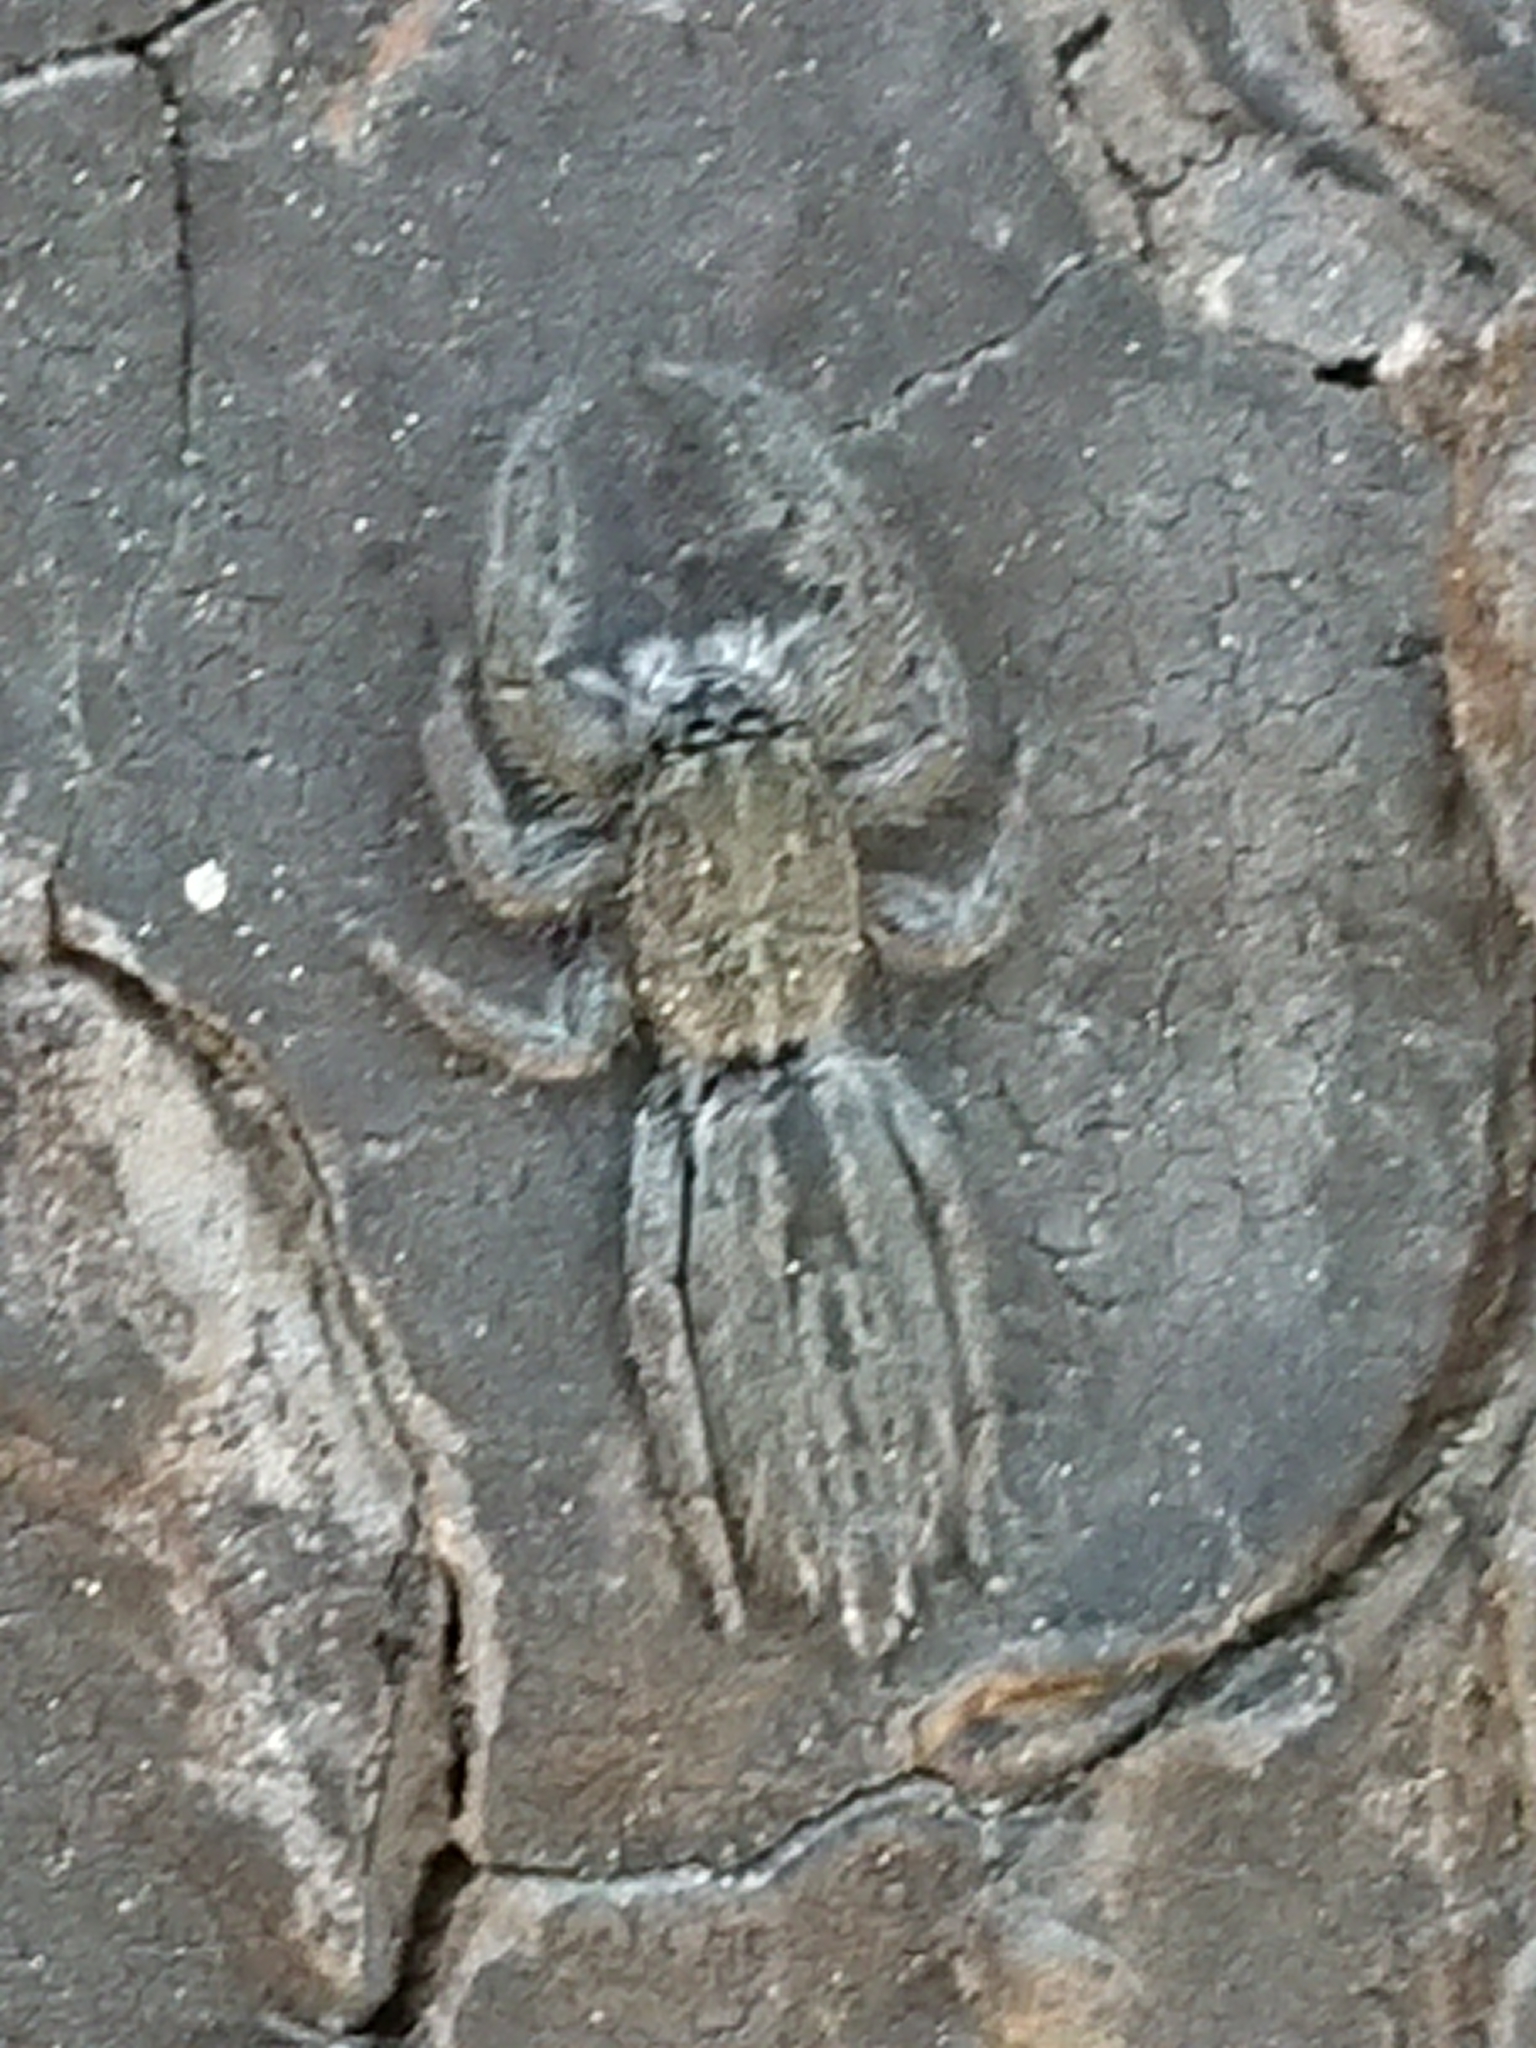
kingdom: Animalia
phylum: Arthropoda
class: Arachnida
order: Araneae
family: Salticidae
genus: Holoplatys
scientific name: Holoplatys apressus
